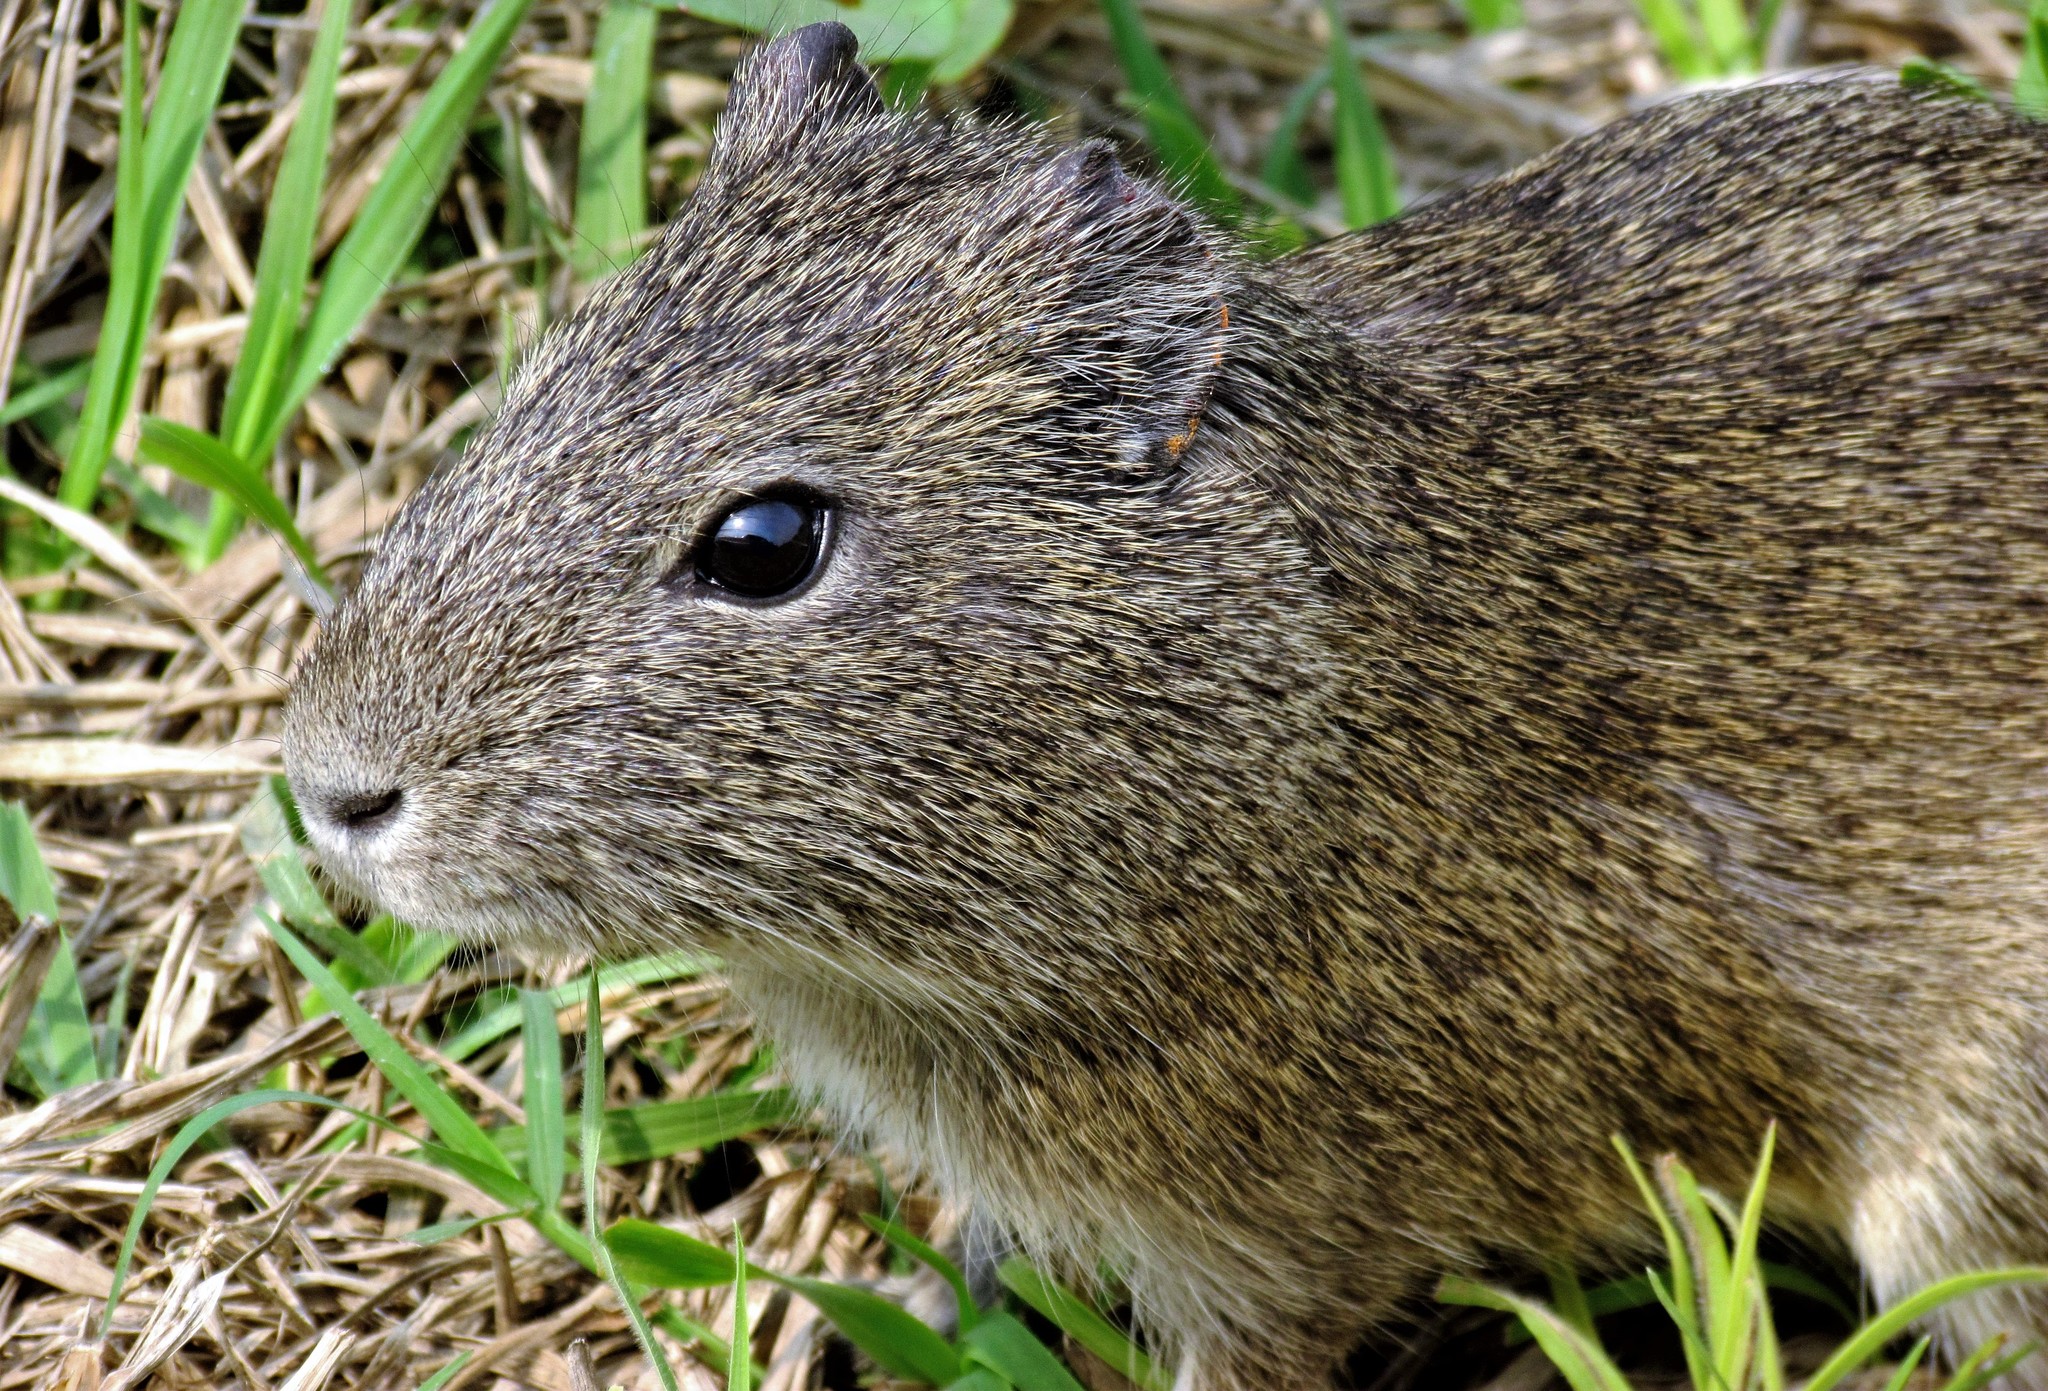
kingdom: Animalia
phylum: Chordata
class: Mammalia
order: Rodentia
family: Caviidae
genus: Cavia
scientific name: Cavia aperea
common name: Brazilian guinea pig
